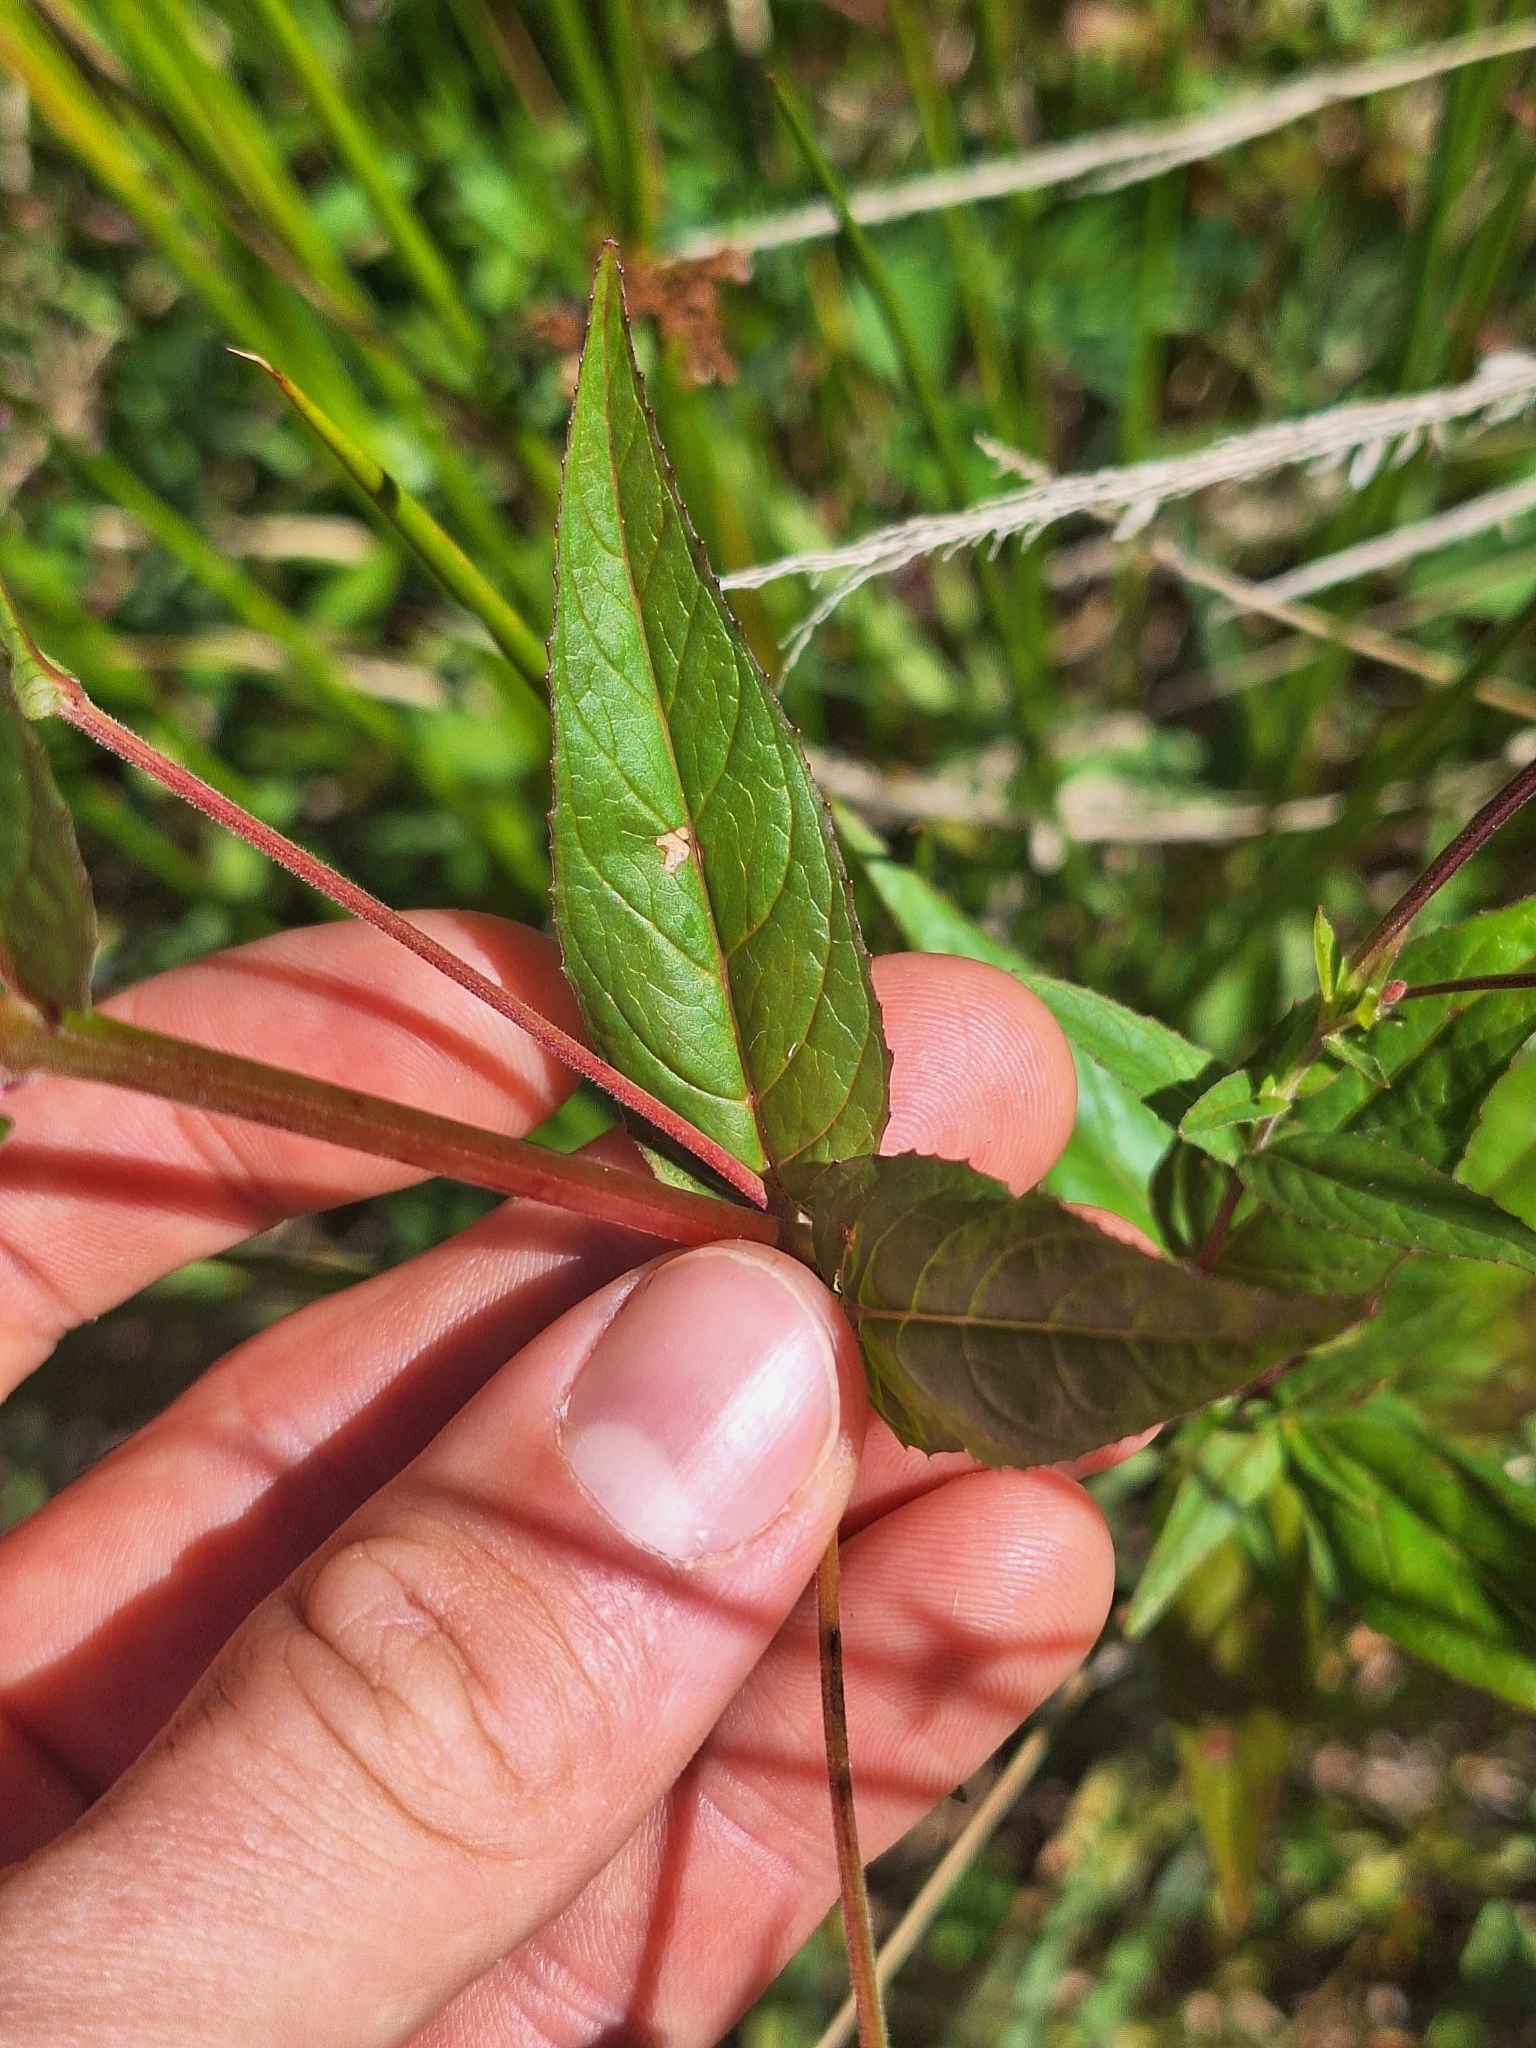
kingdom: Plantae
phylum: Tracheophyta
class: Magnoliopsida
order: Myrtales
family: Onagraceae
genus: Epilobium
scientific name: Epilobium ciliatum
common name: American willowherb
